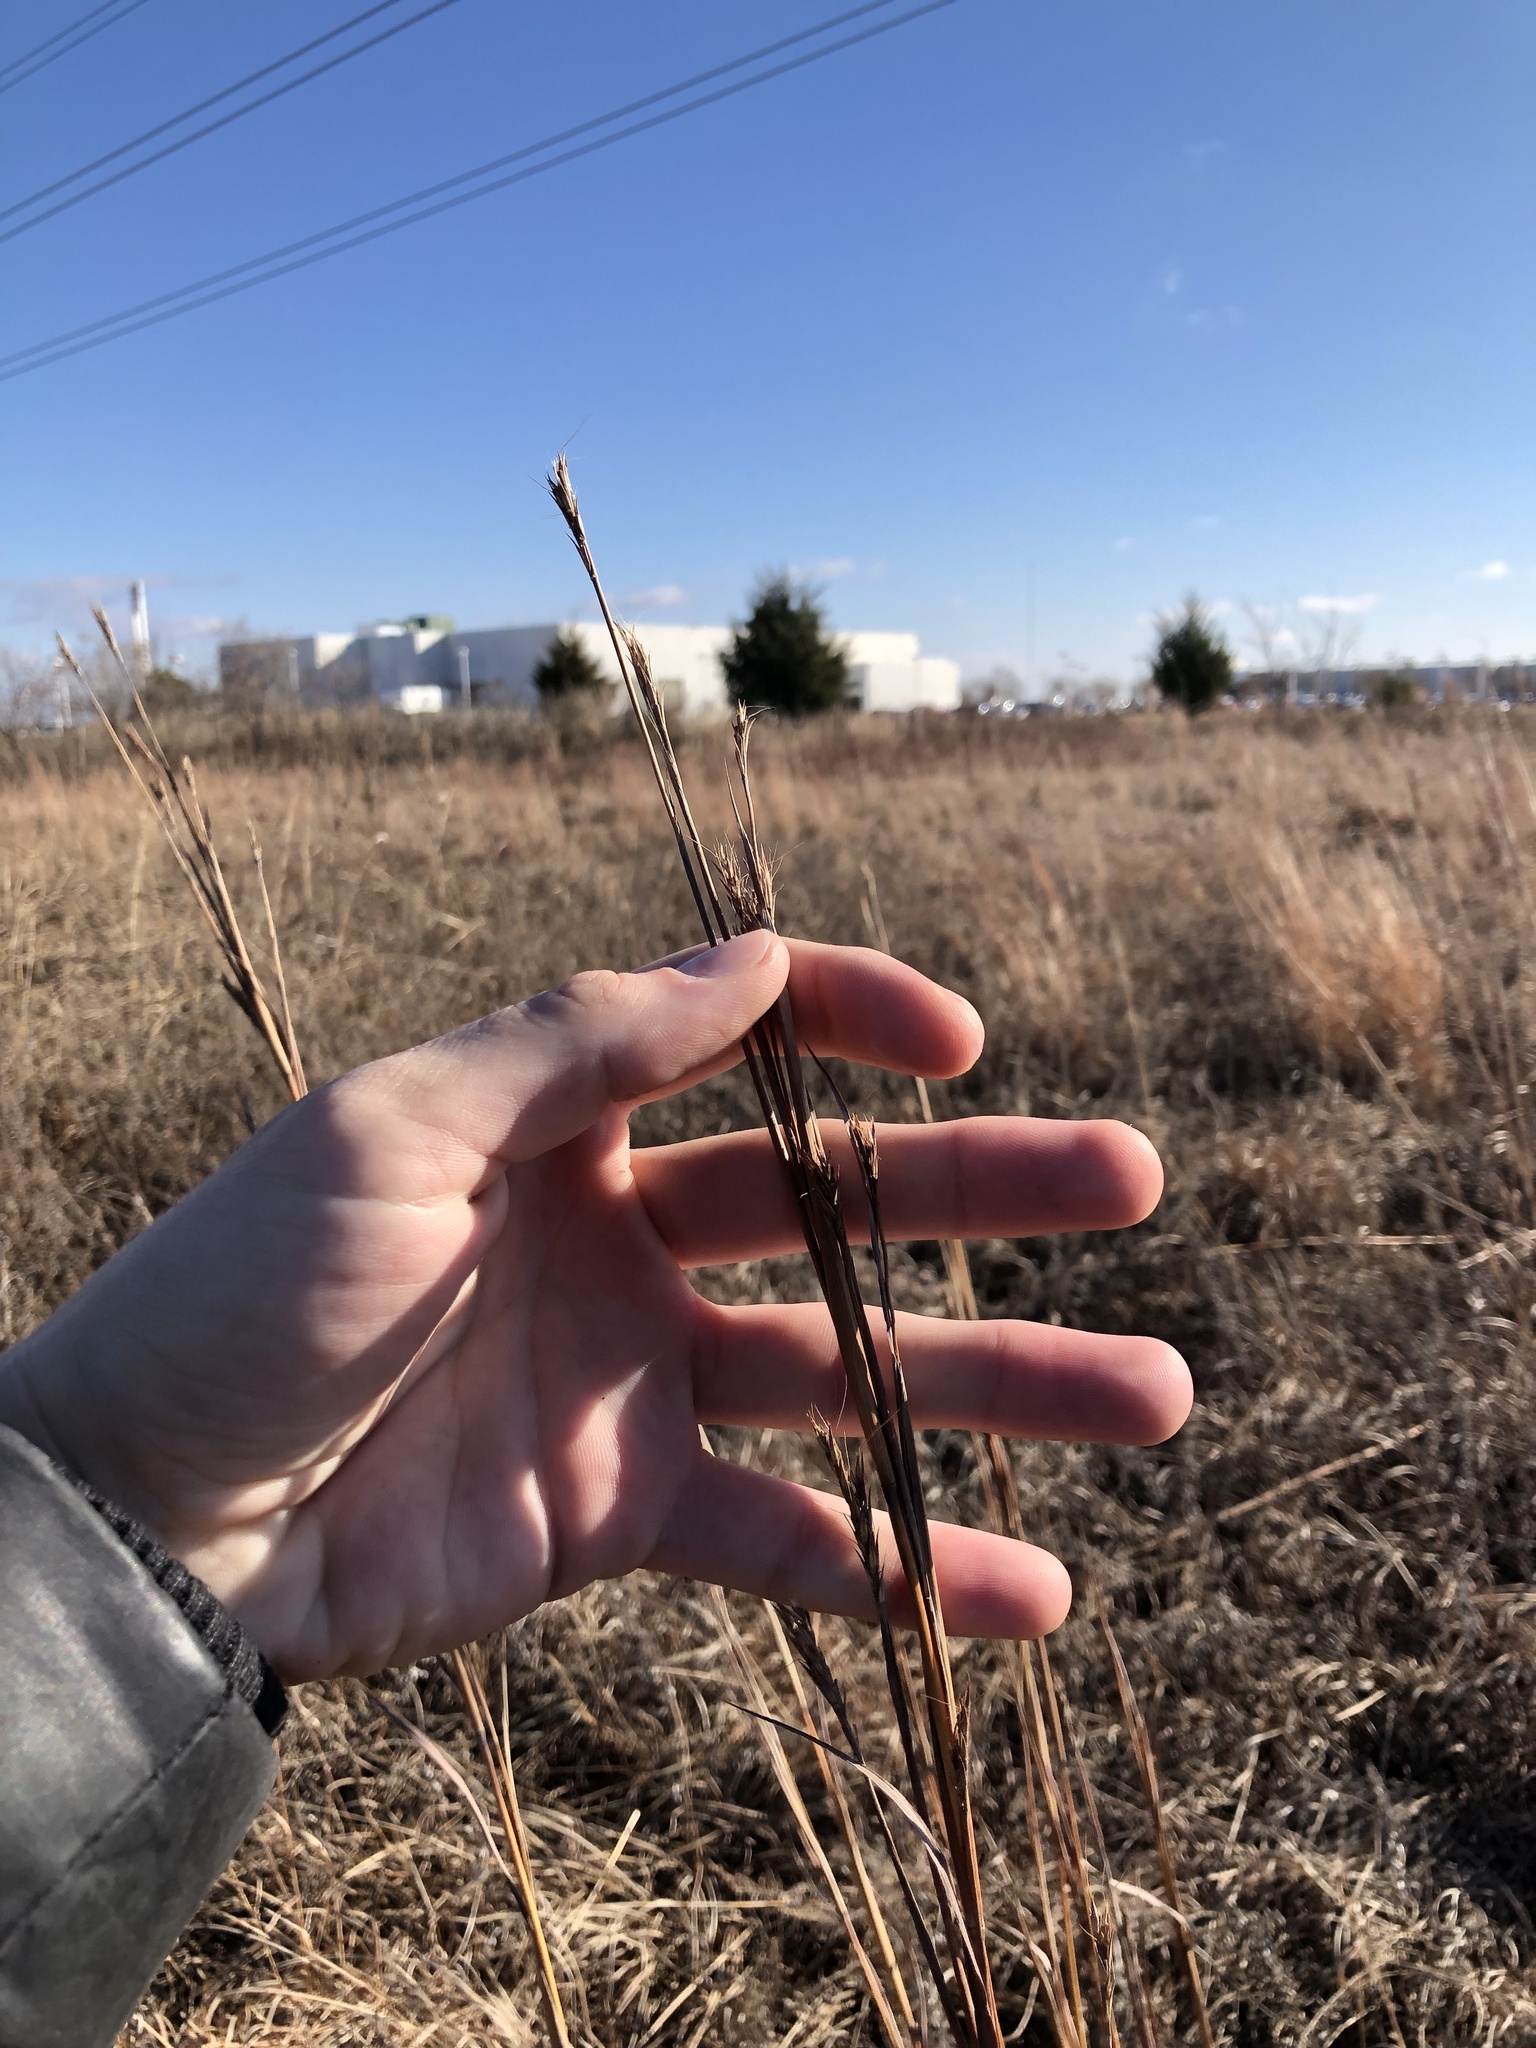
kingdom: Plantae
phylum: Tracheophyta
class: Liliopsida
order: Poales
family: Poaceae
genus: Andropogon
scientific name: Andropogon gerardi
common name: Big bluestem
